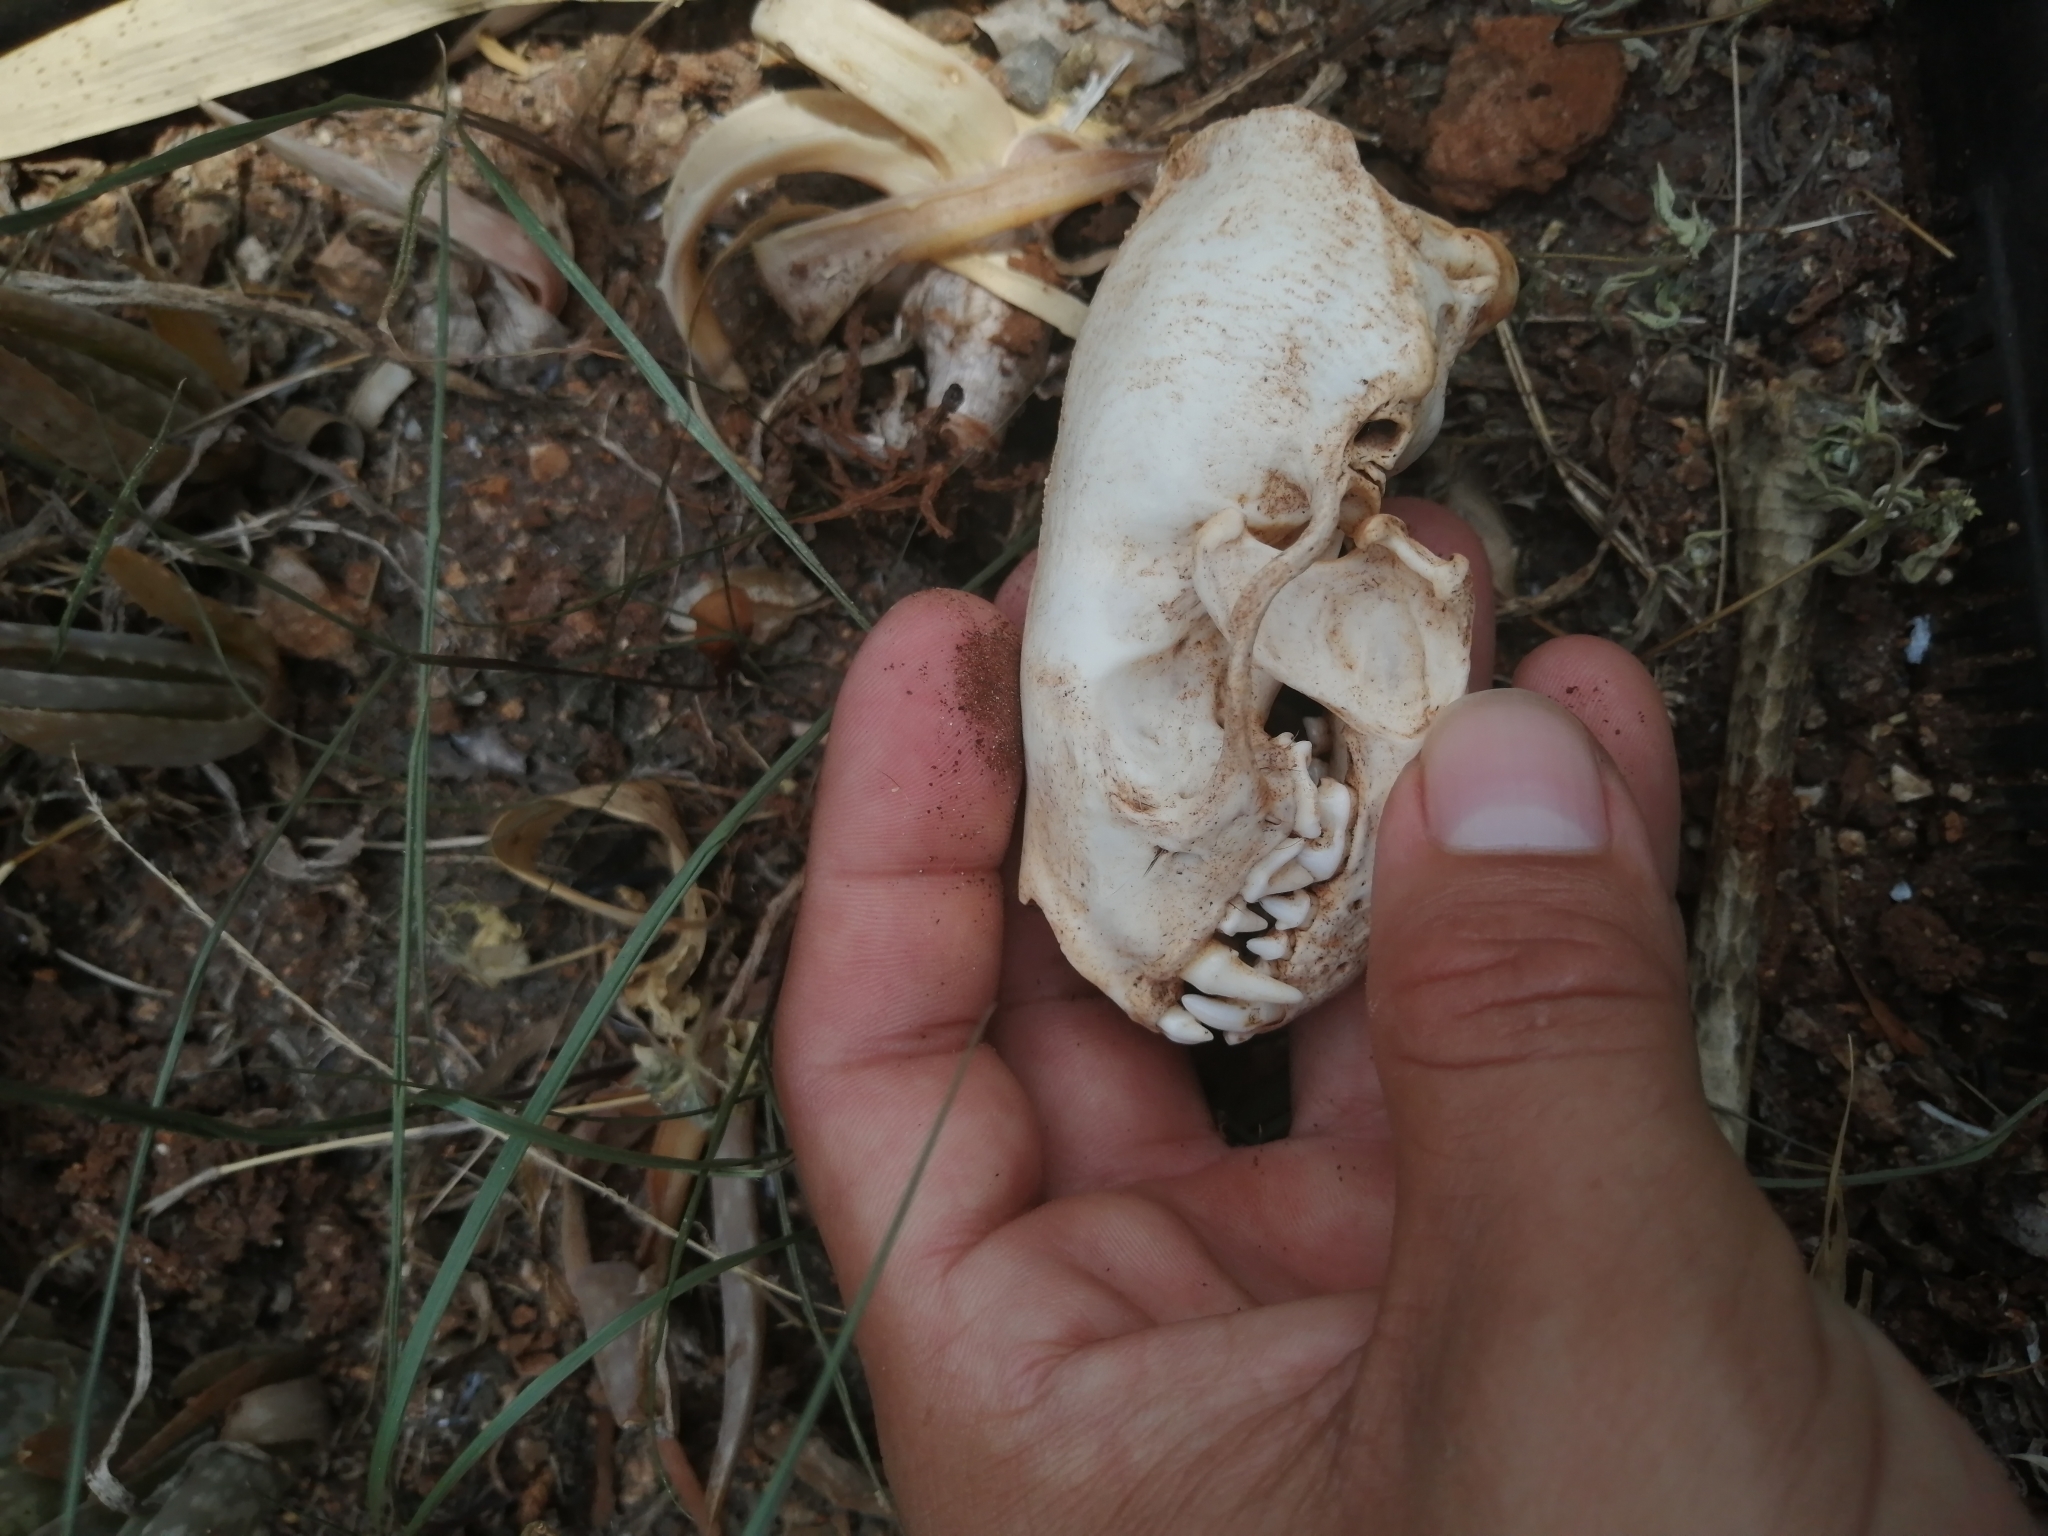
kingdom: Animalia
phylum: Chordata
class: Mammalia
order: Carnivora
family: Mephitidae
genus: Conepatus
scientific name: Conepatus semistriatus
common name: Striped hog-nosed skunk
